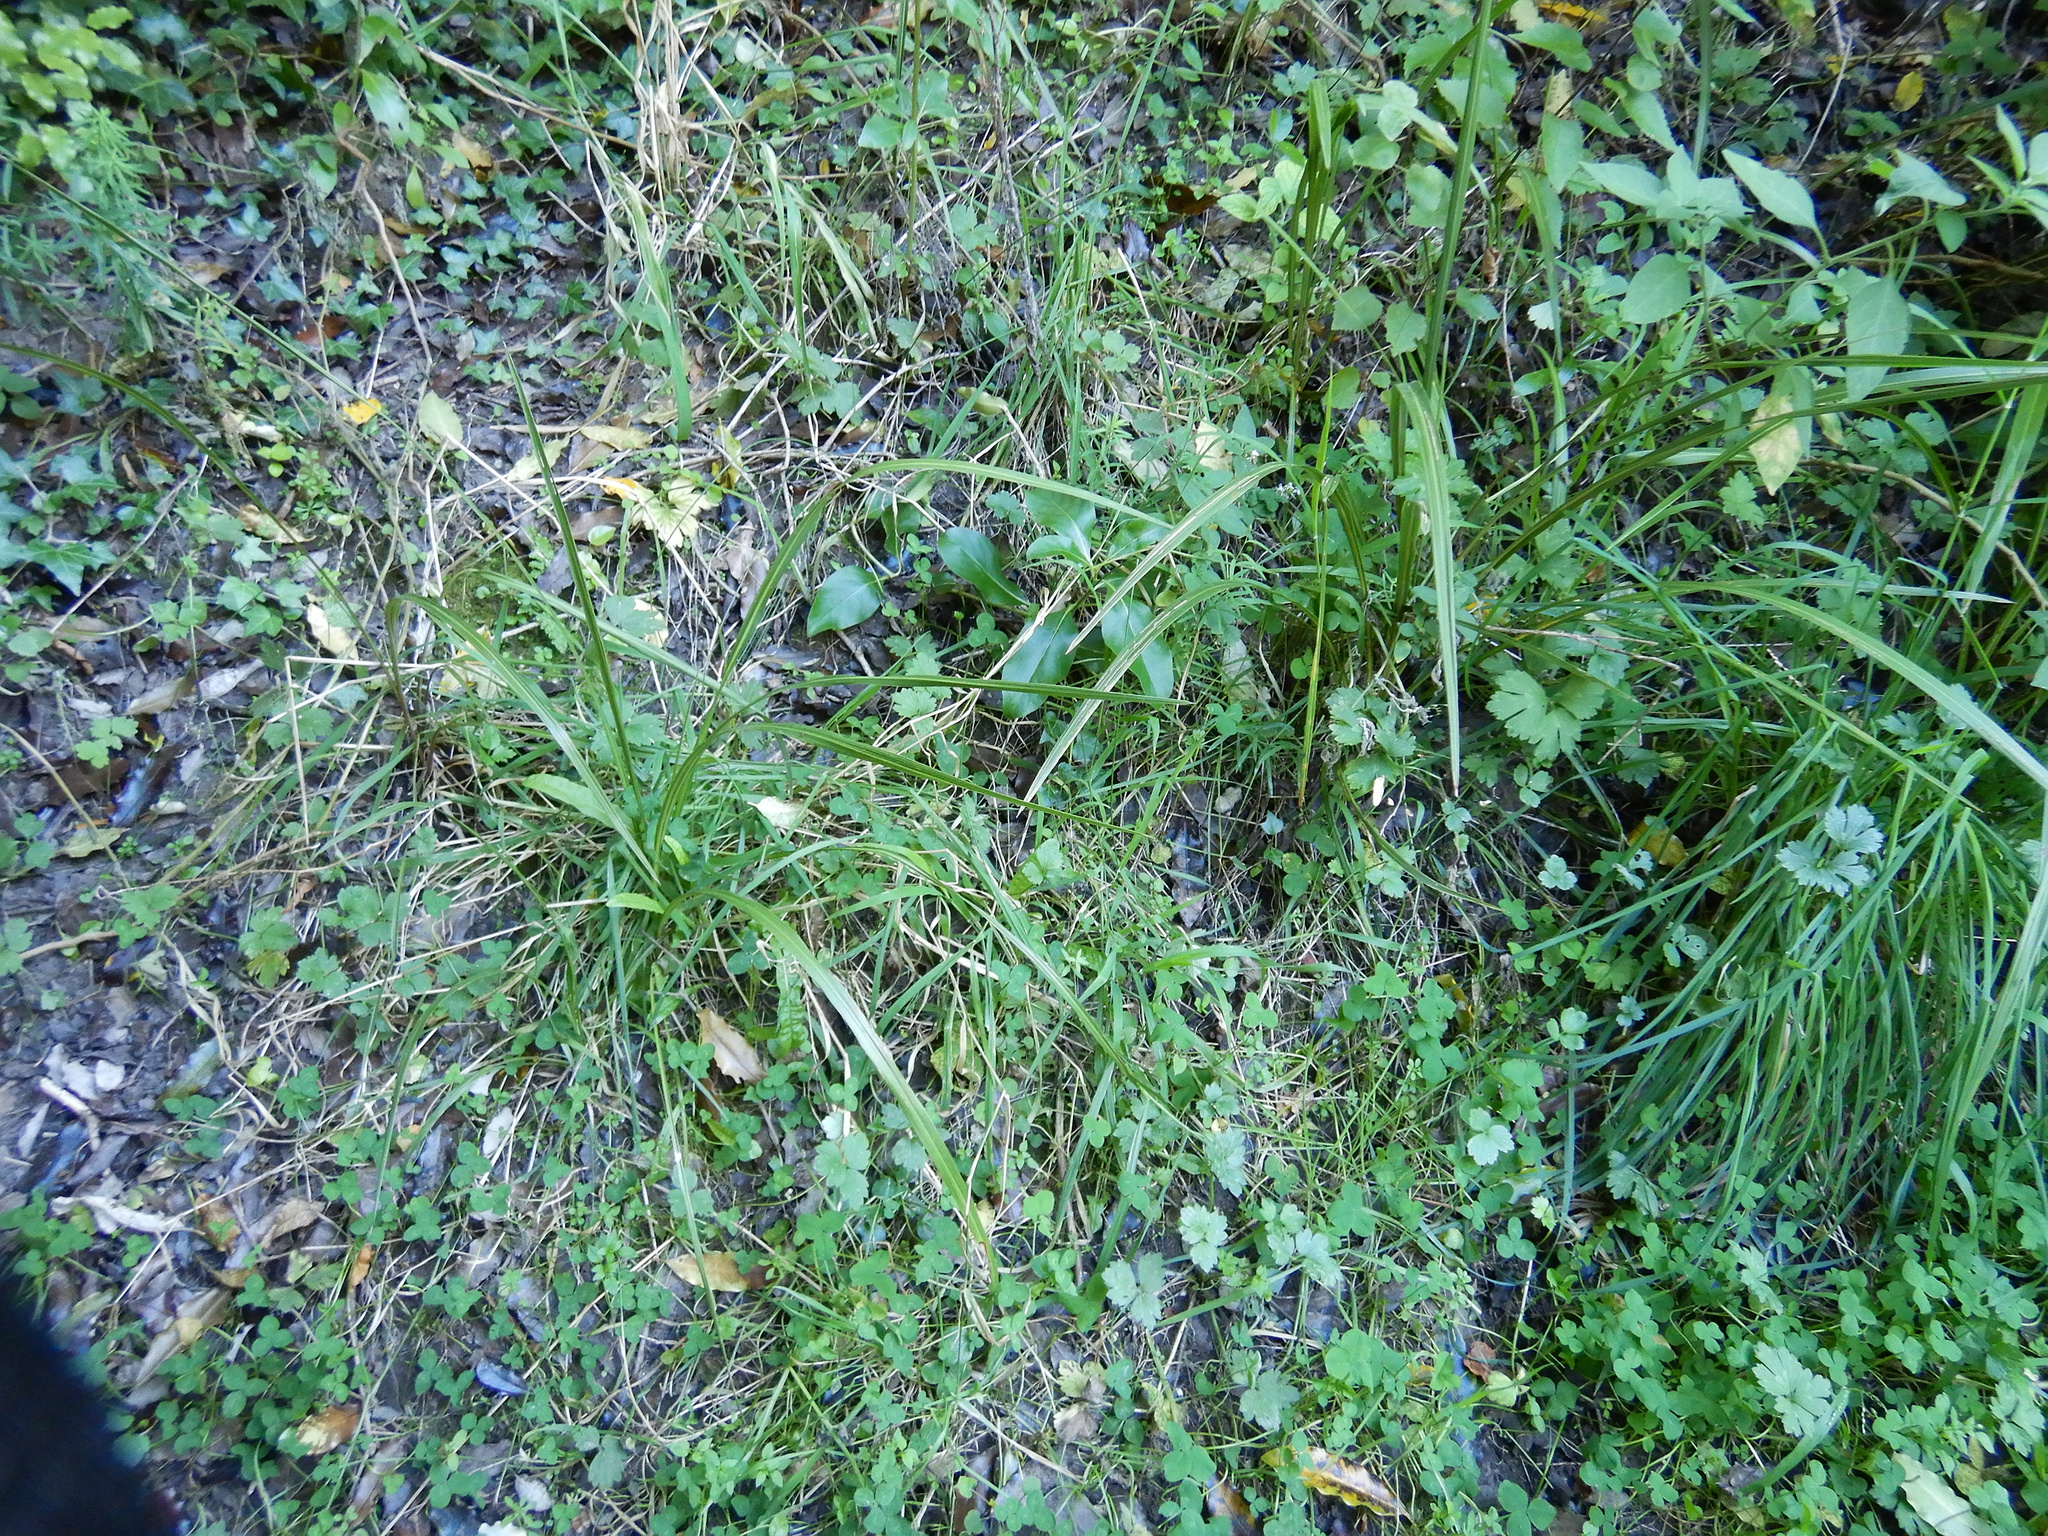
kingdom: Plantae
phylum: Tracheophyta
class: Liliopsida
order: Asparagales
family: Asparagaceae
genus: Cordyline
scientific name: Cordyline australis
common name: Cabbage-palm
